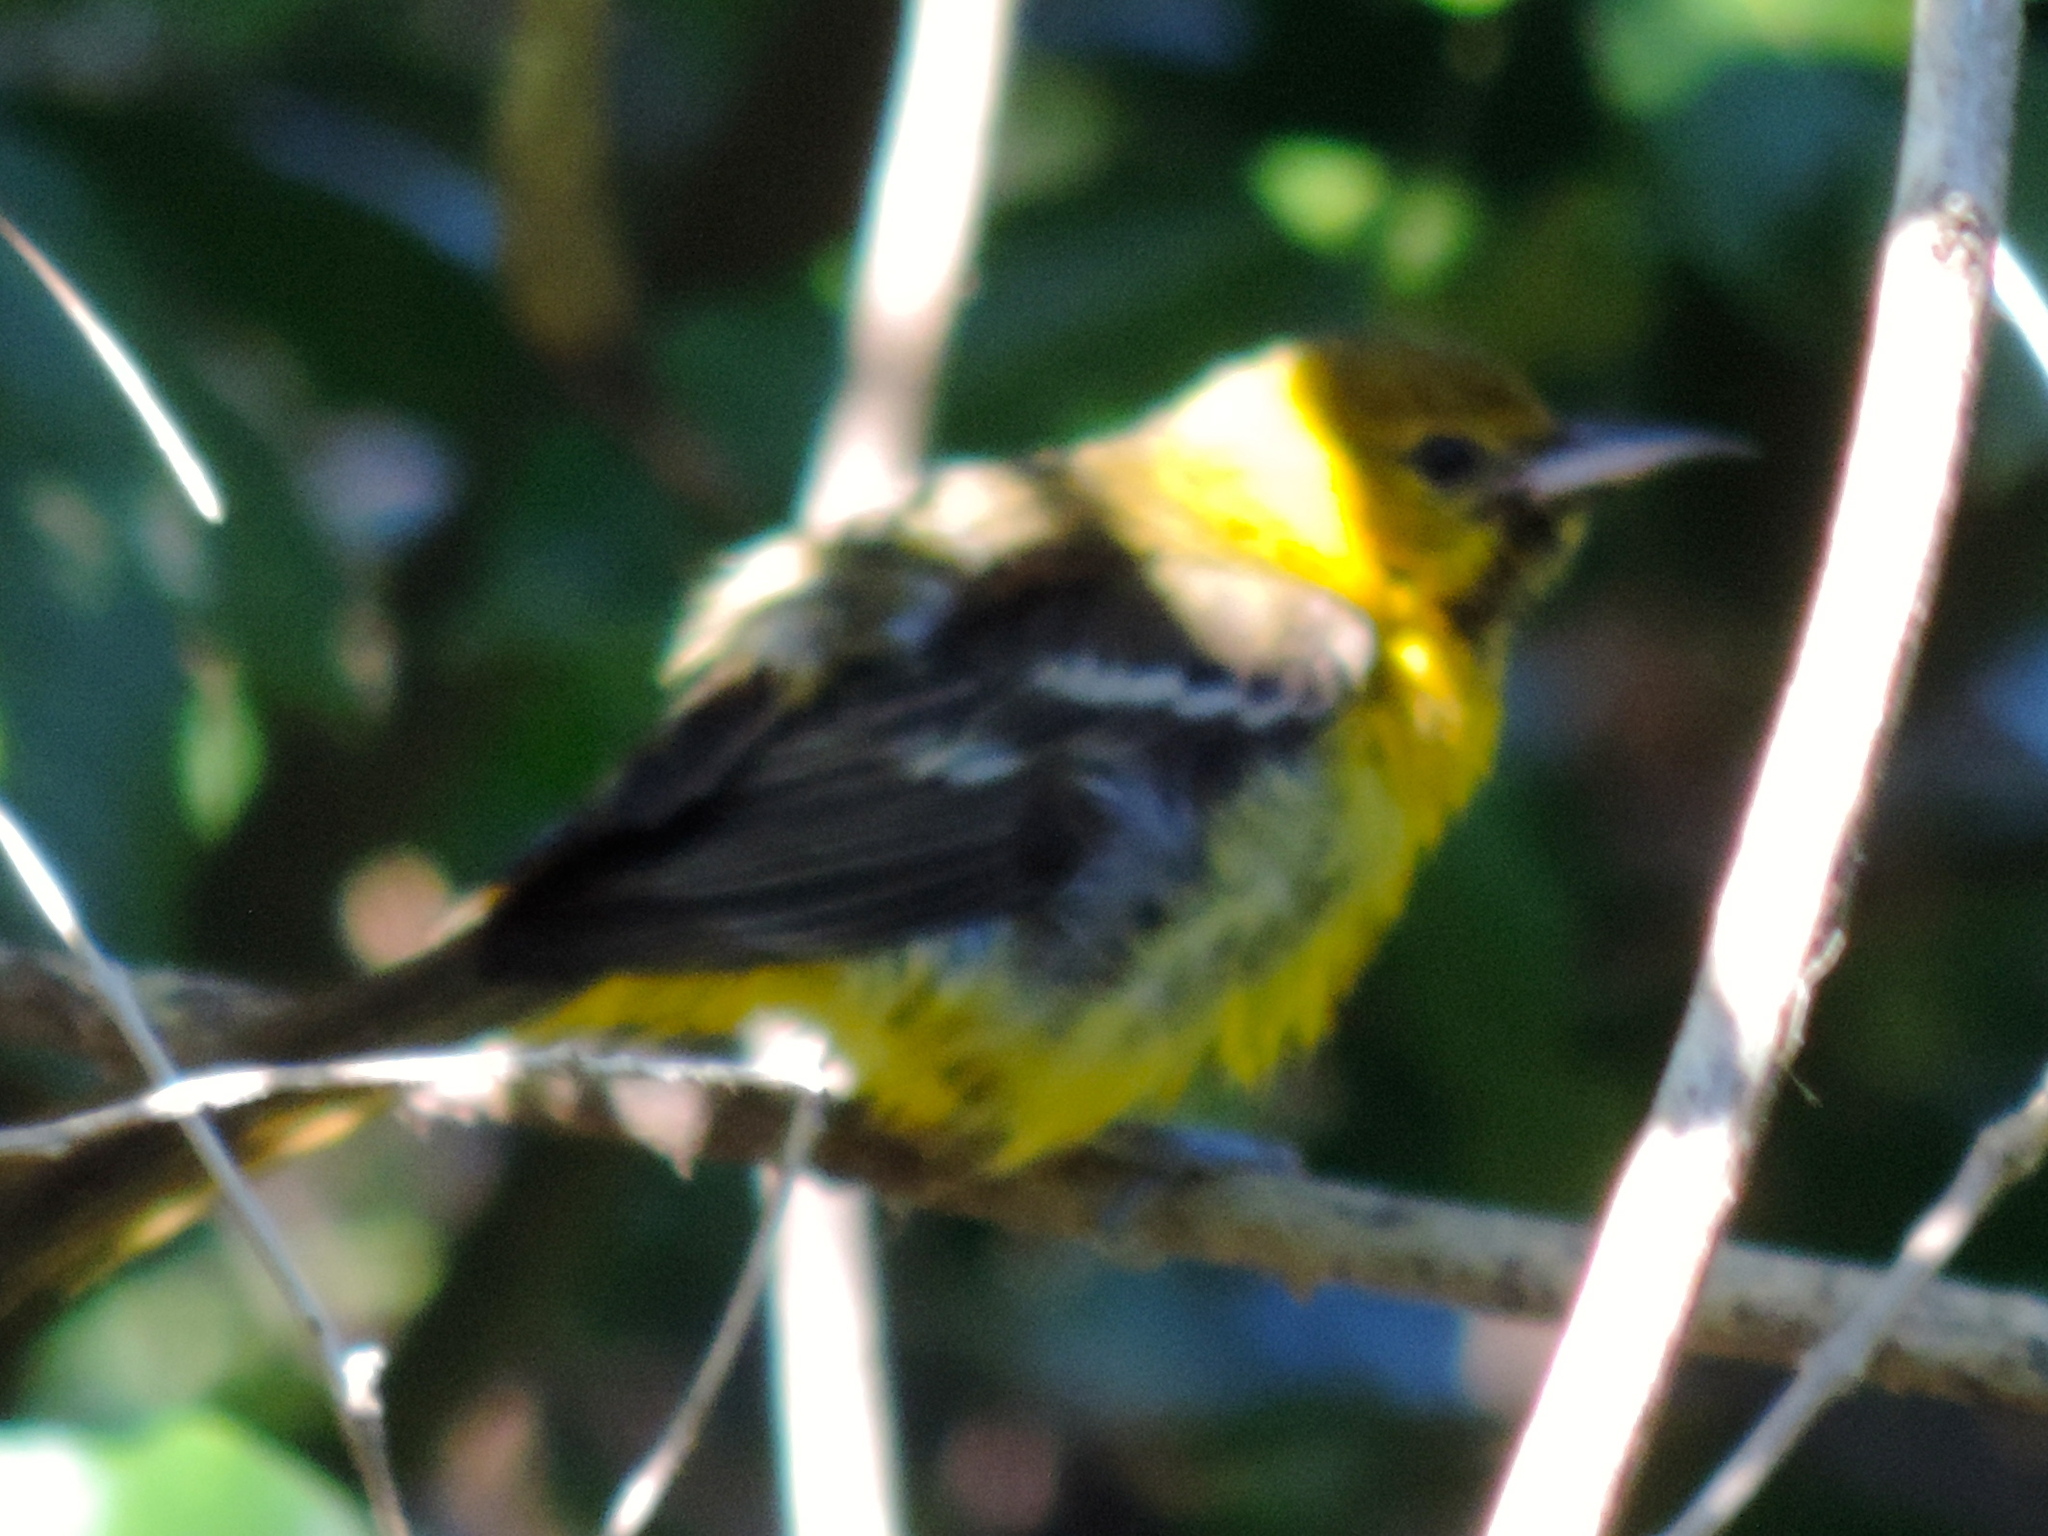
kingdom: Animalia
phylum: Chordata
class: Aves
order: Passeriformes
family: Icteridae
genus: Icterus
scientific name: Icterus
